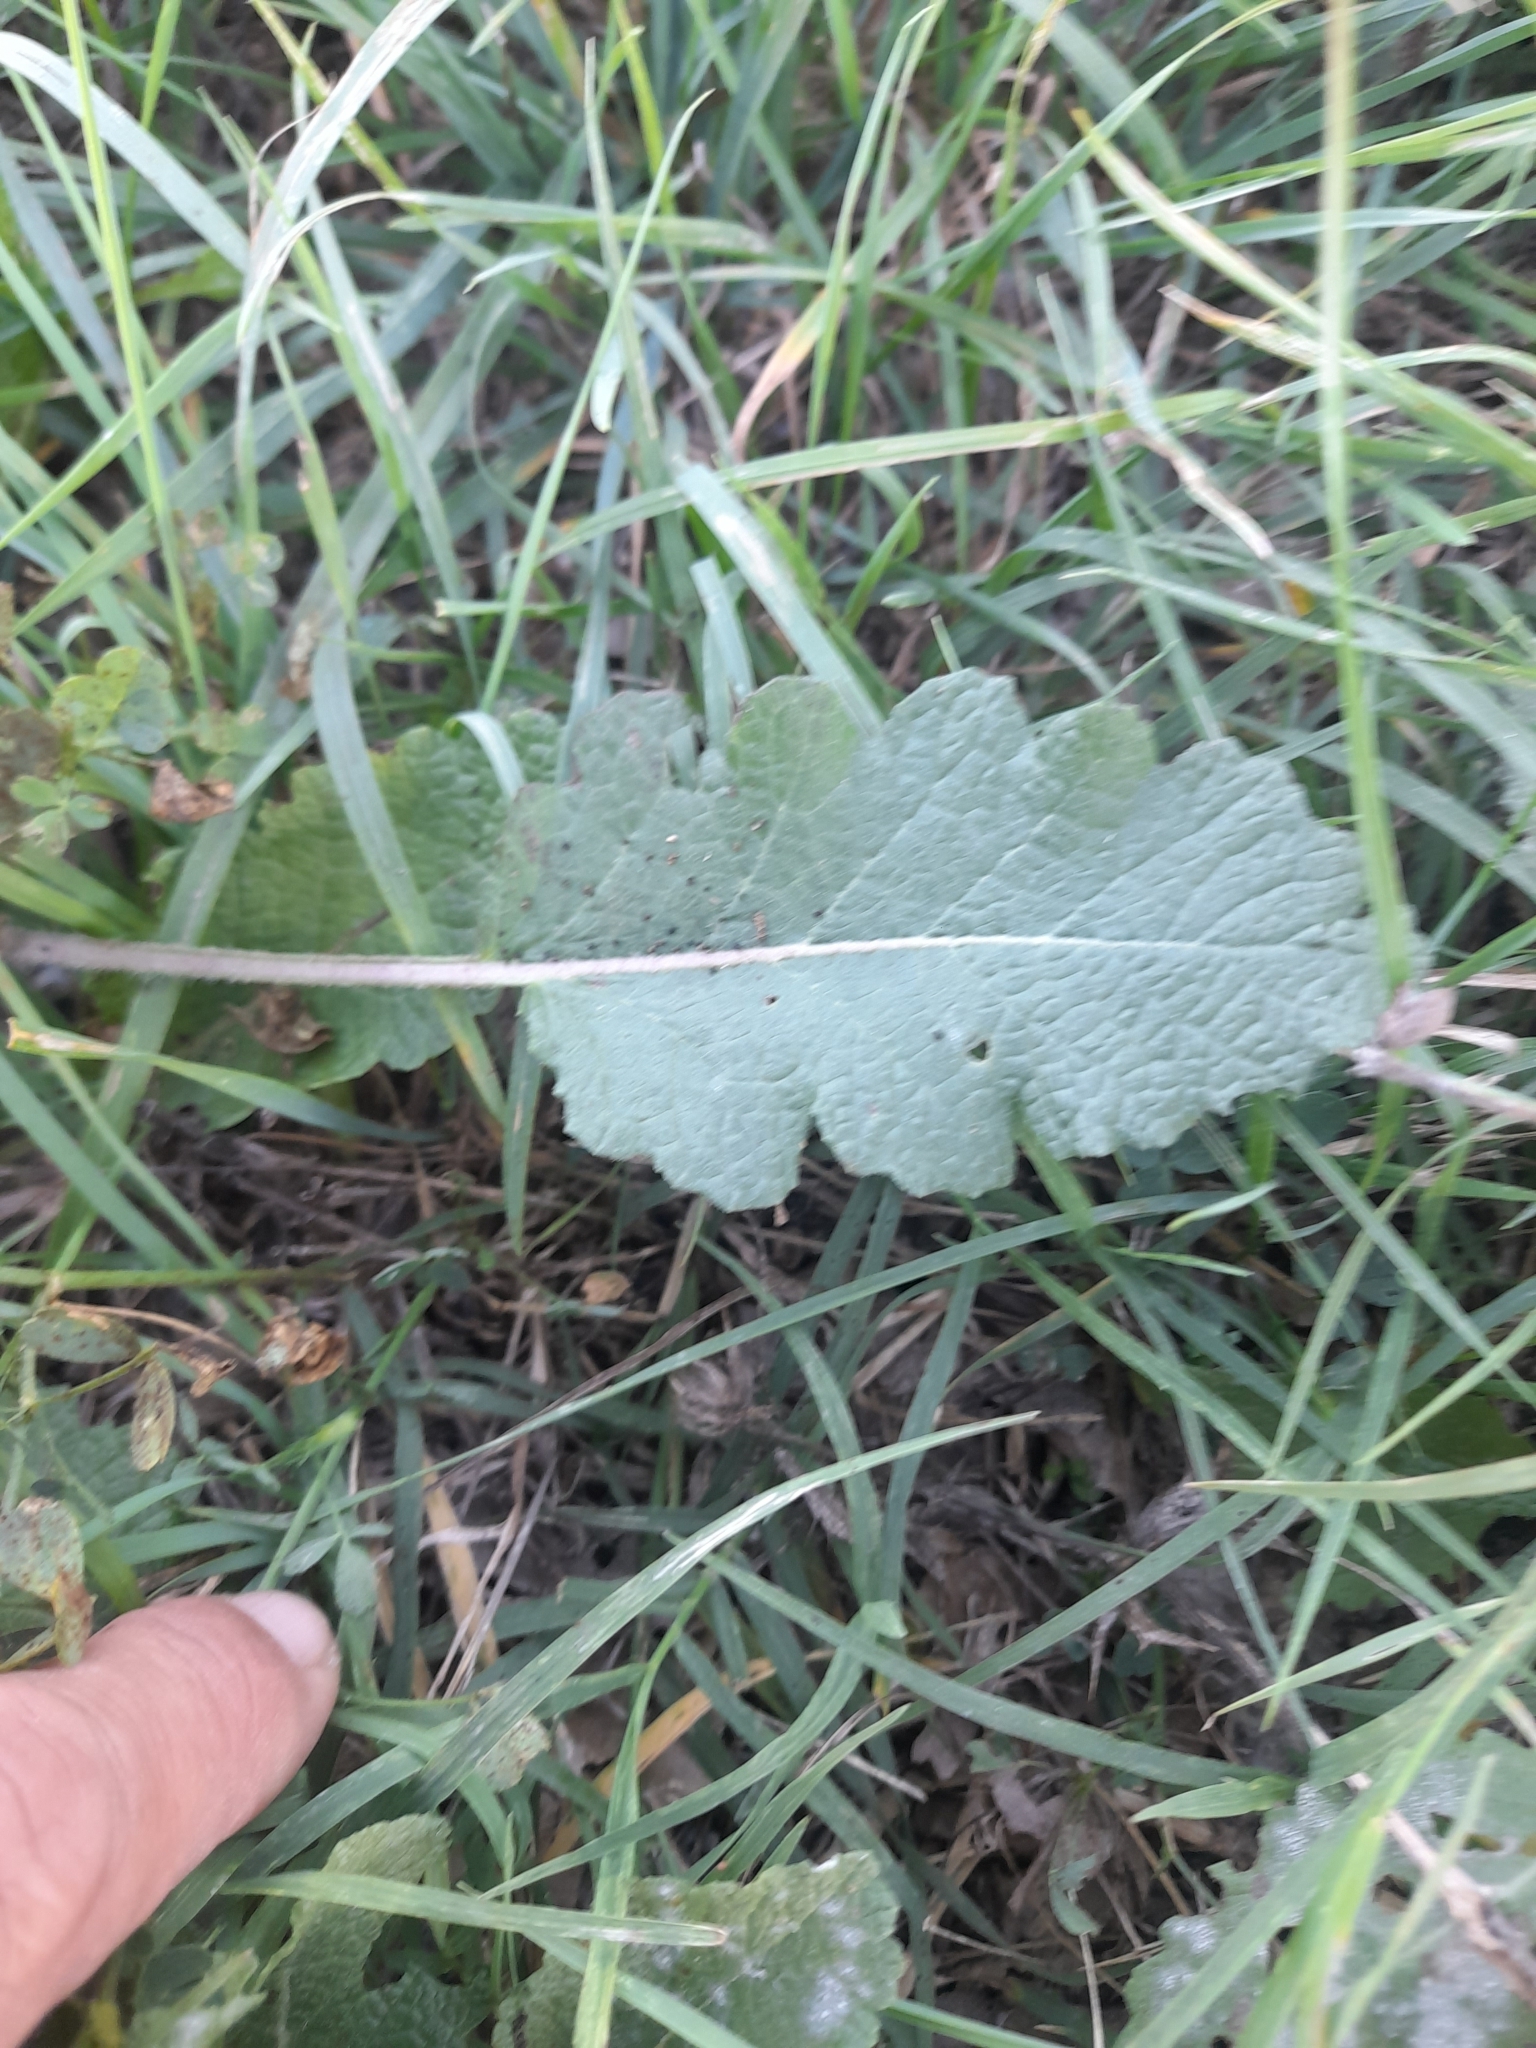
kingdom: Plantae
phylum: Tracheophyta
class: Magnoliopsida
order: Lamiales
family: Lamiaceae
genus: Salvia
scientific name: Salvia verbenaca
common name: Wild clary
